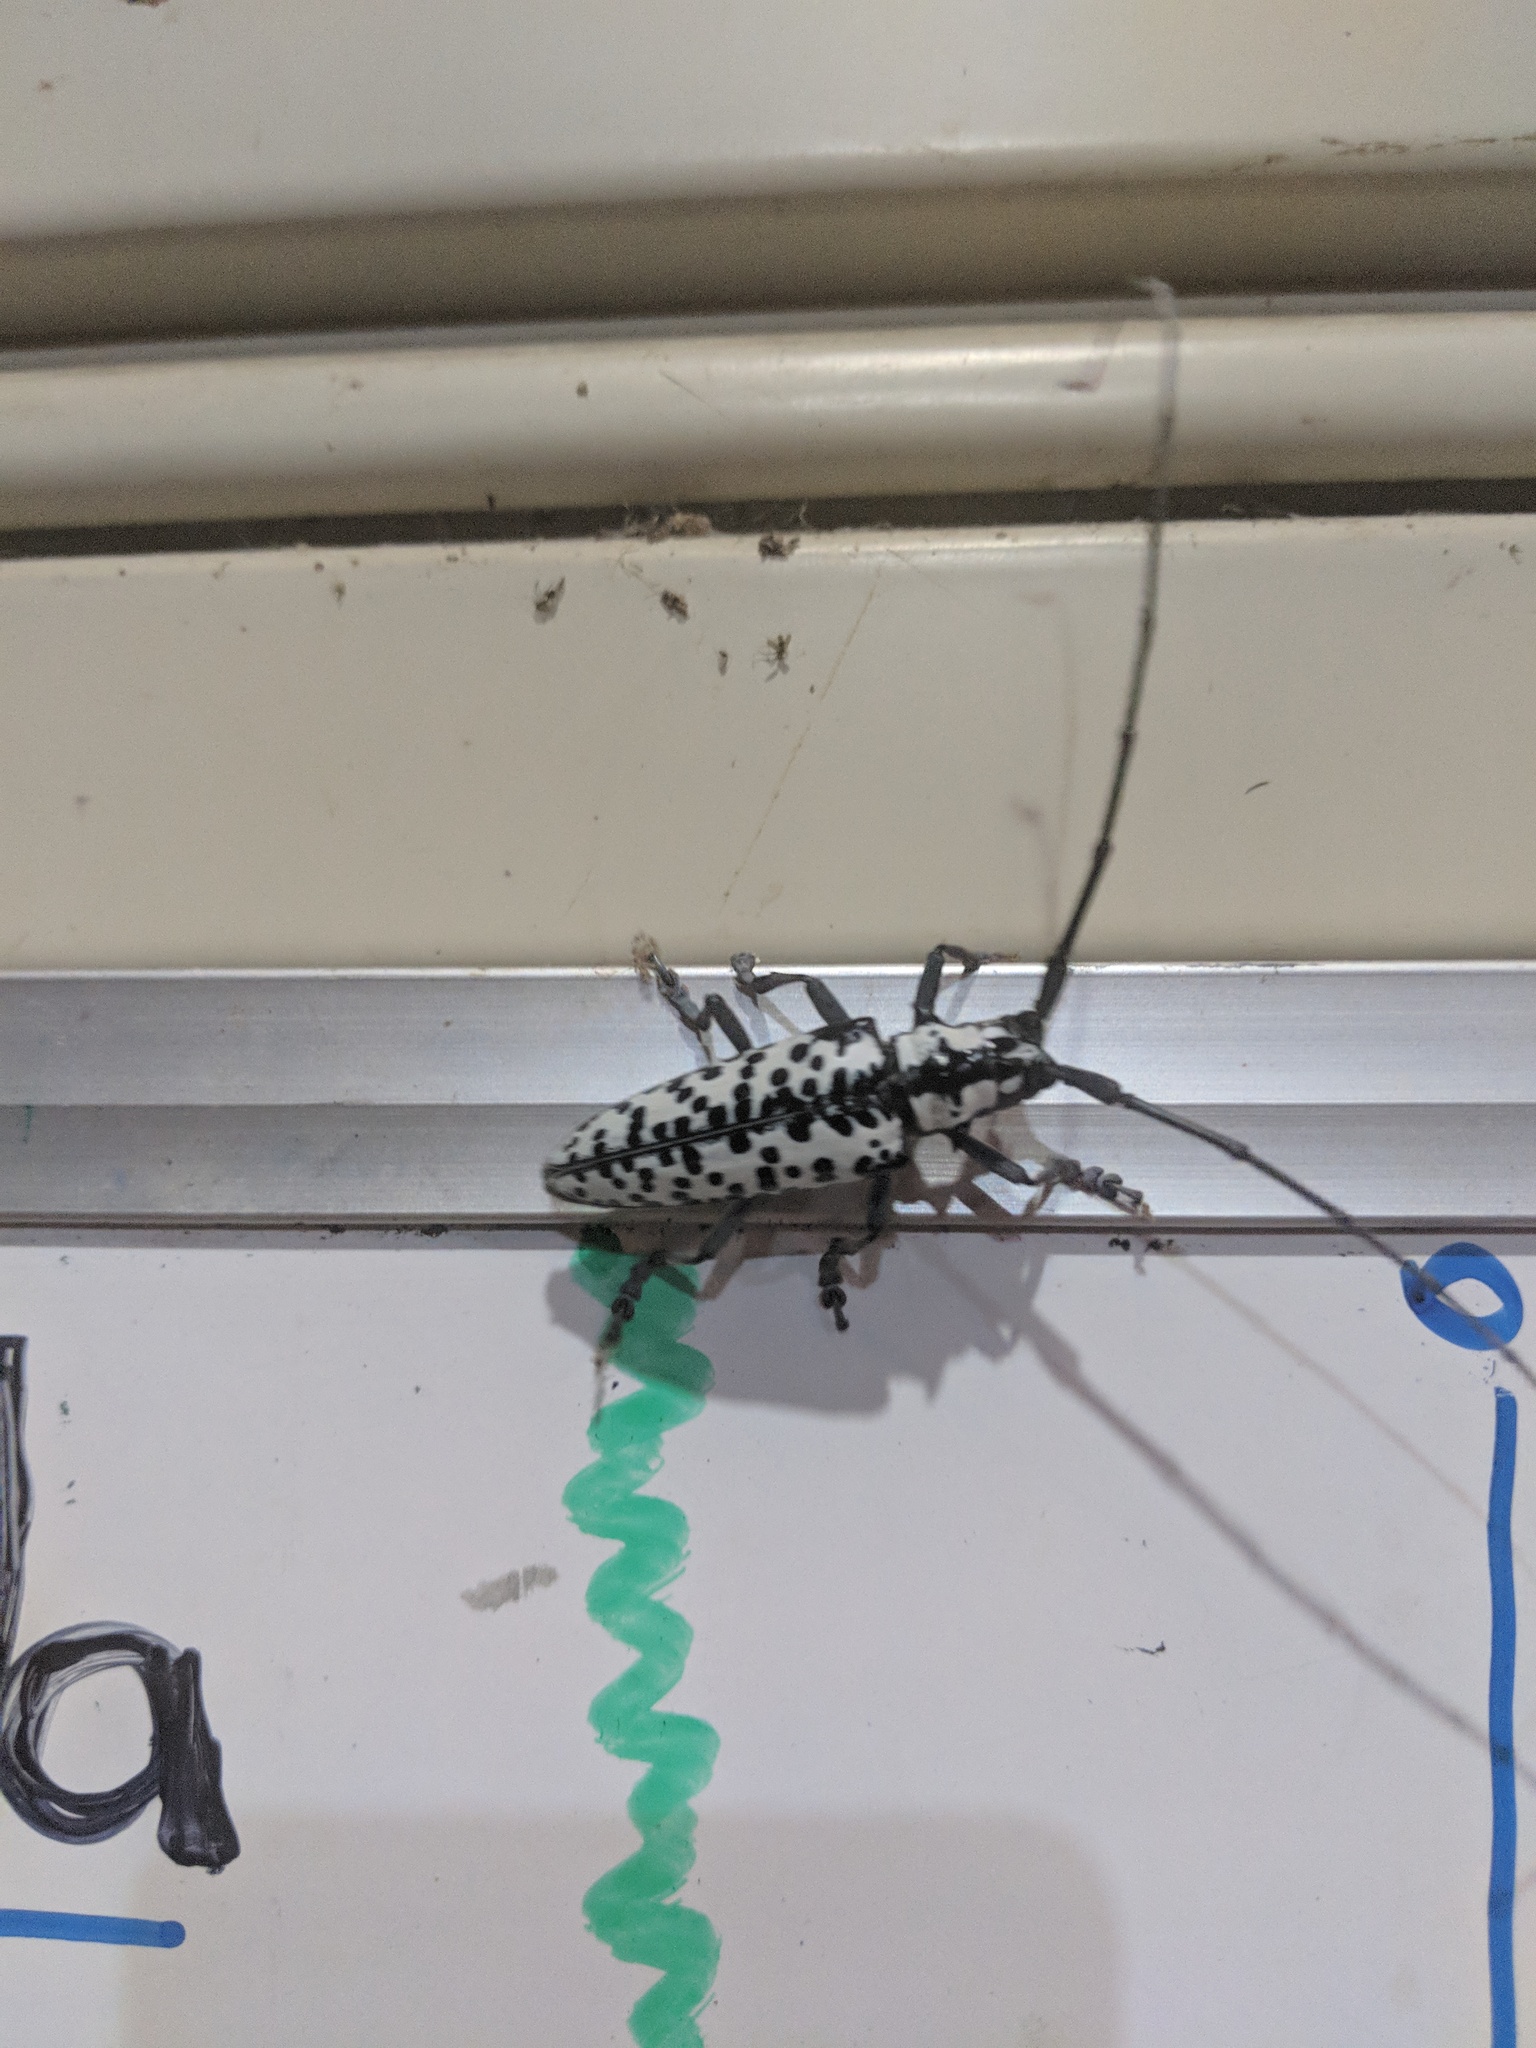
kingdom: Animalia
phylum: Arthropoda
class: Insecta
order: Coleoptera
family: Cerambycidae
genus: Deliathis
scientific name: Deliathis nivea
